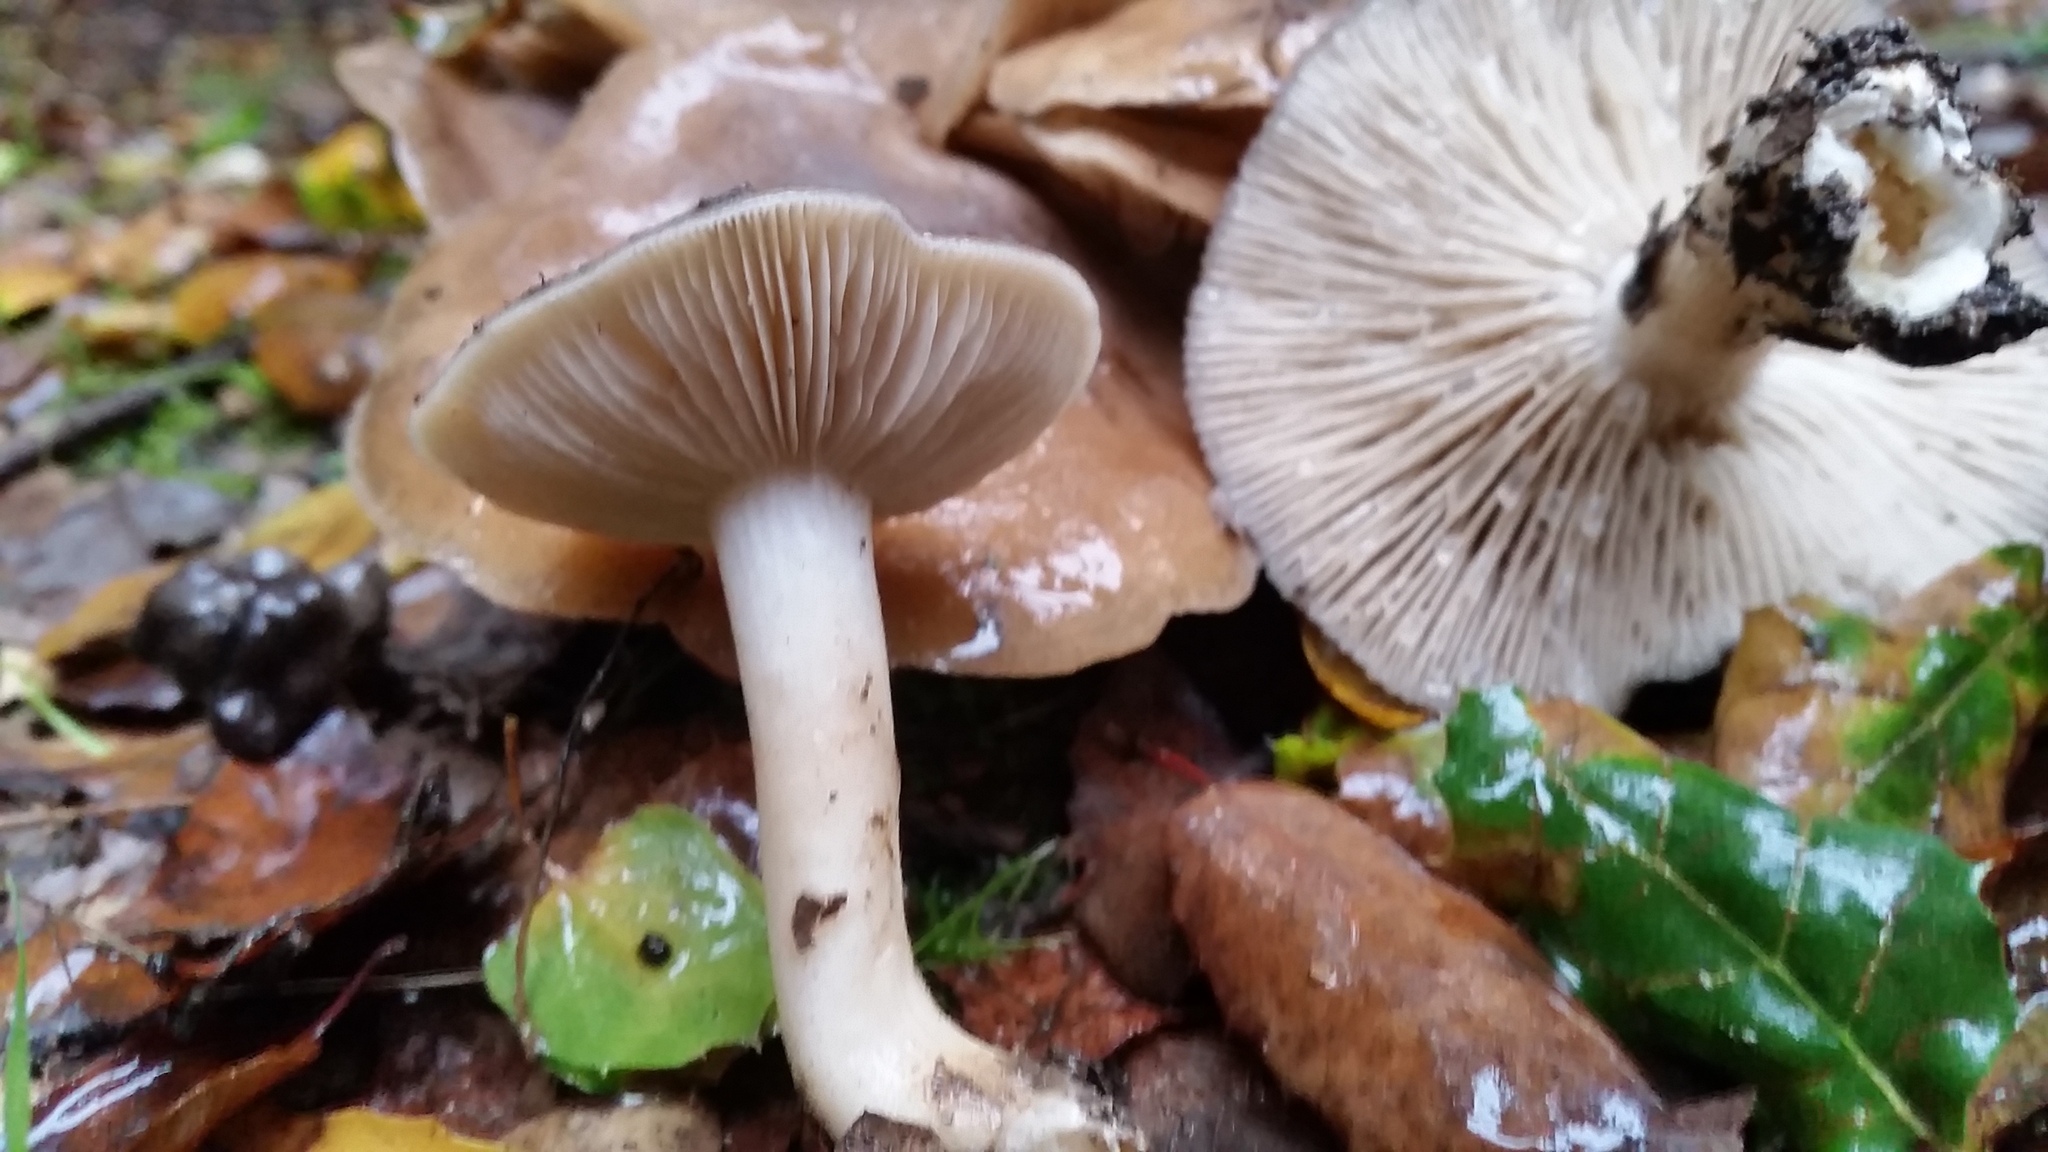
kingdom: Fungi
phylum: Basidiomycota
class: Agaricomycetes
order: Agaricales
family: Lyophyllaceae
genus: Lyophyllum
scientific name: Lyophyllum decastes
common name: Clustered domecap
